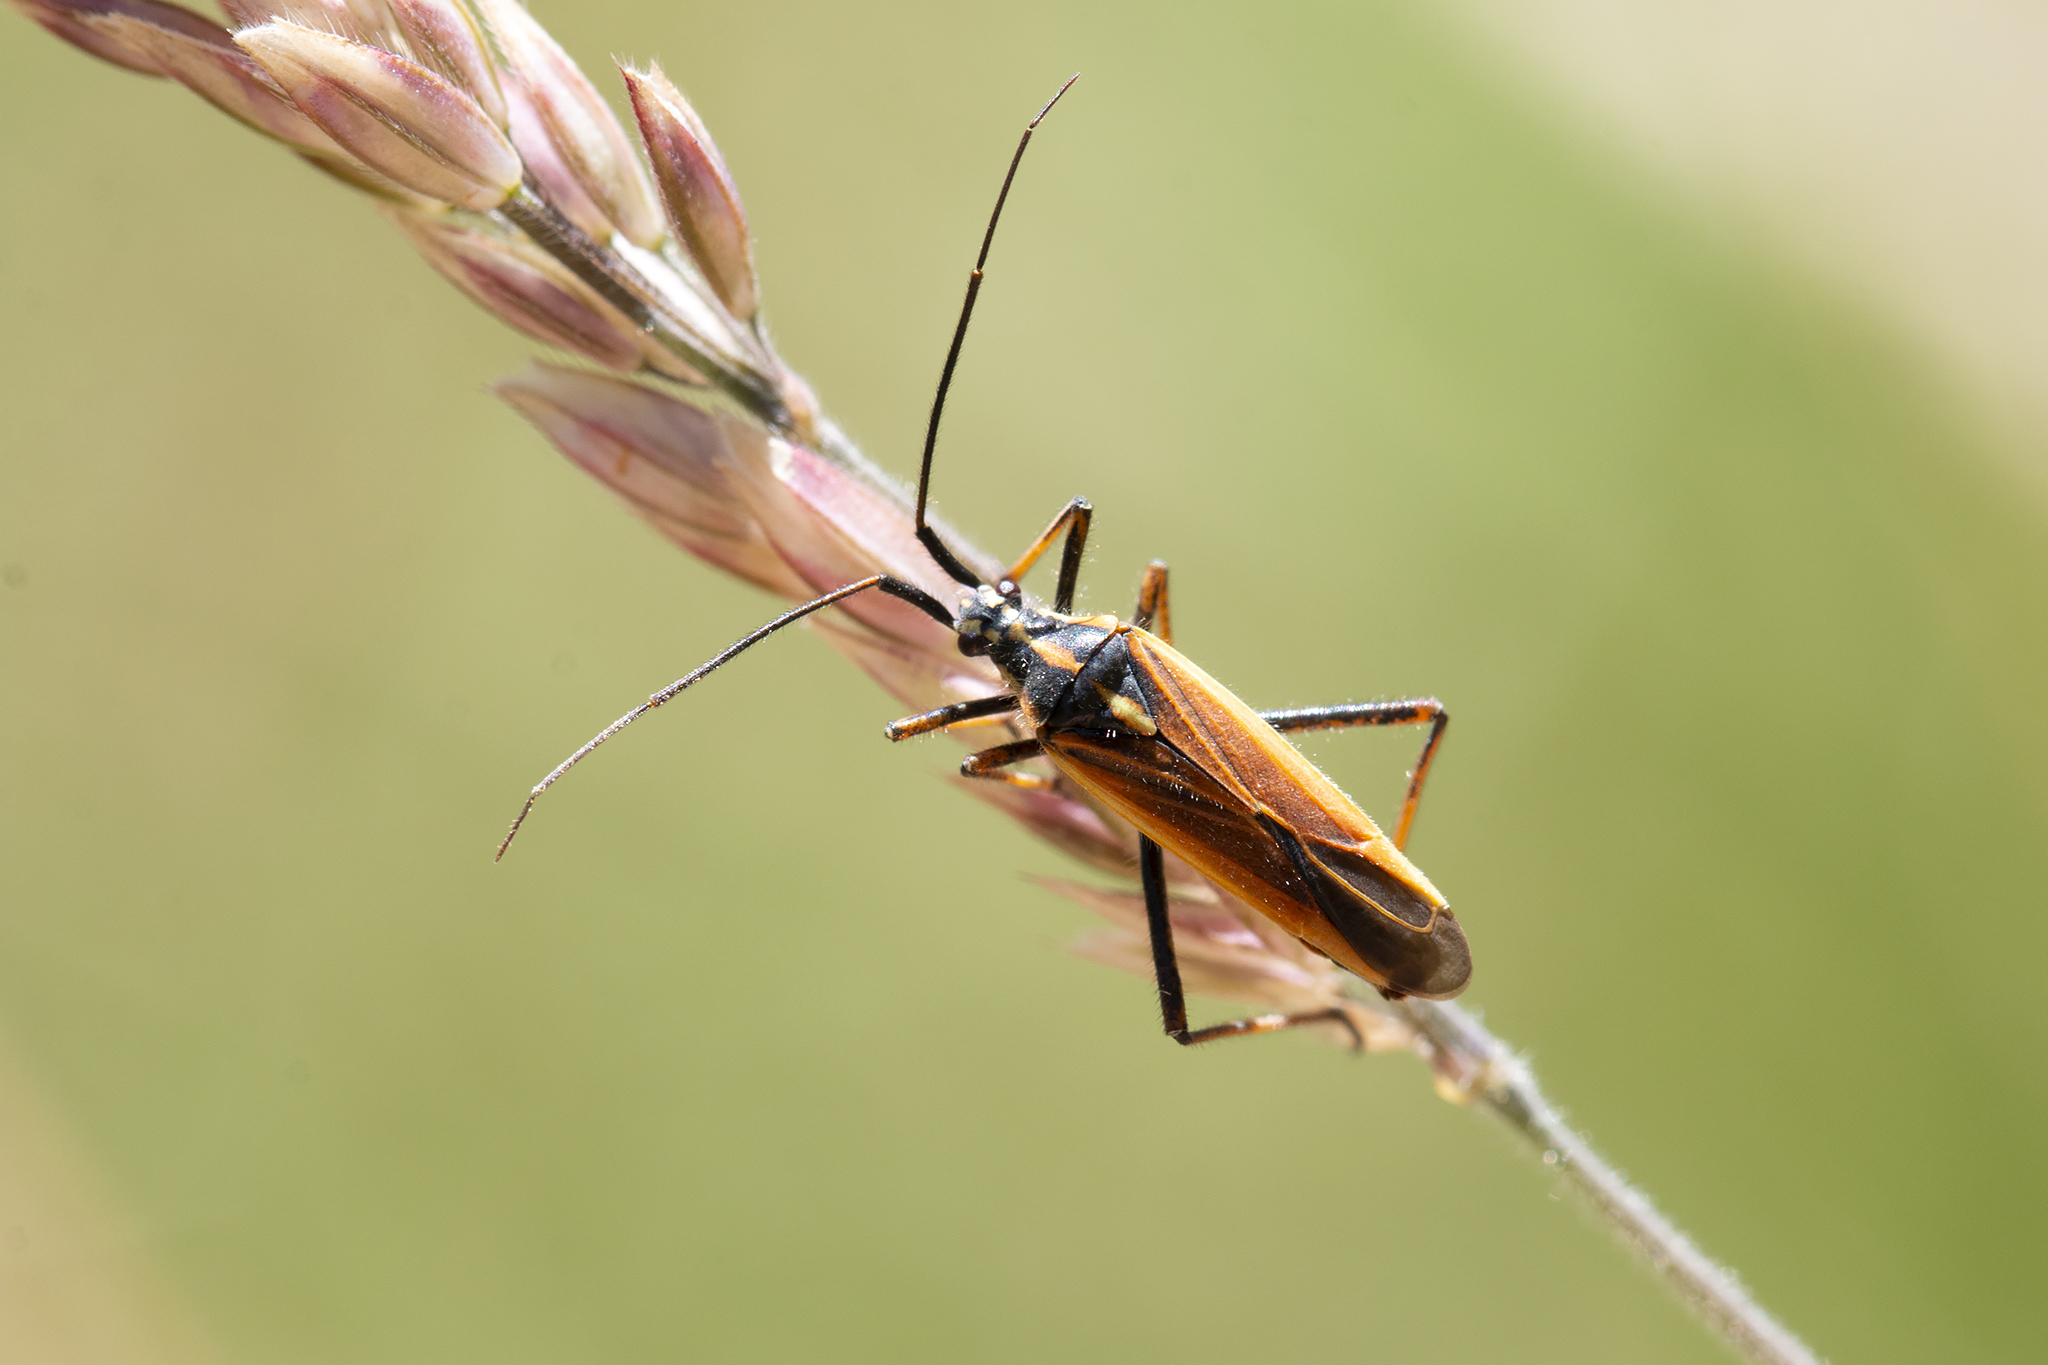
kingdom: Animalia
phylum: Arthropoda
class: Insecta
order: Hemiptera
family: Miridae
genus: Leptopterna
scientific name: Leptopterna dolabrata
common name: Meadow plant bug
